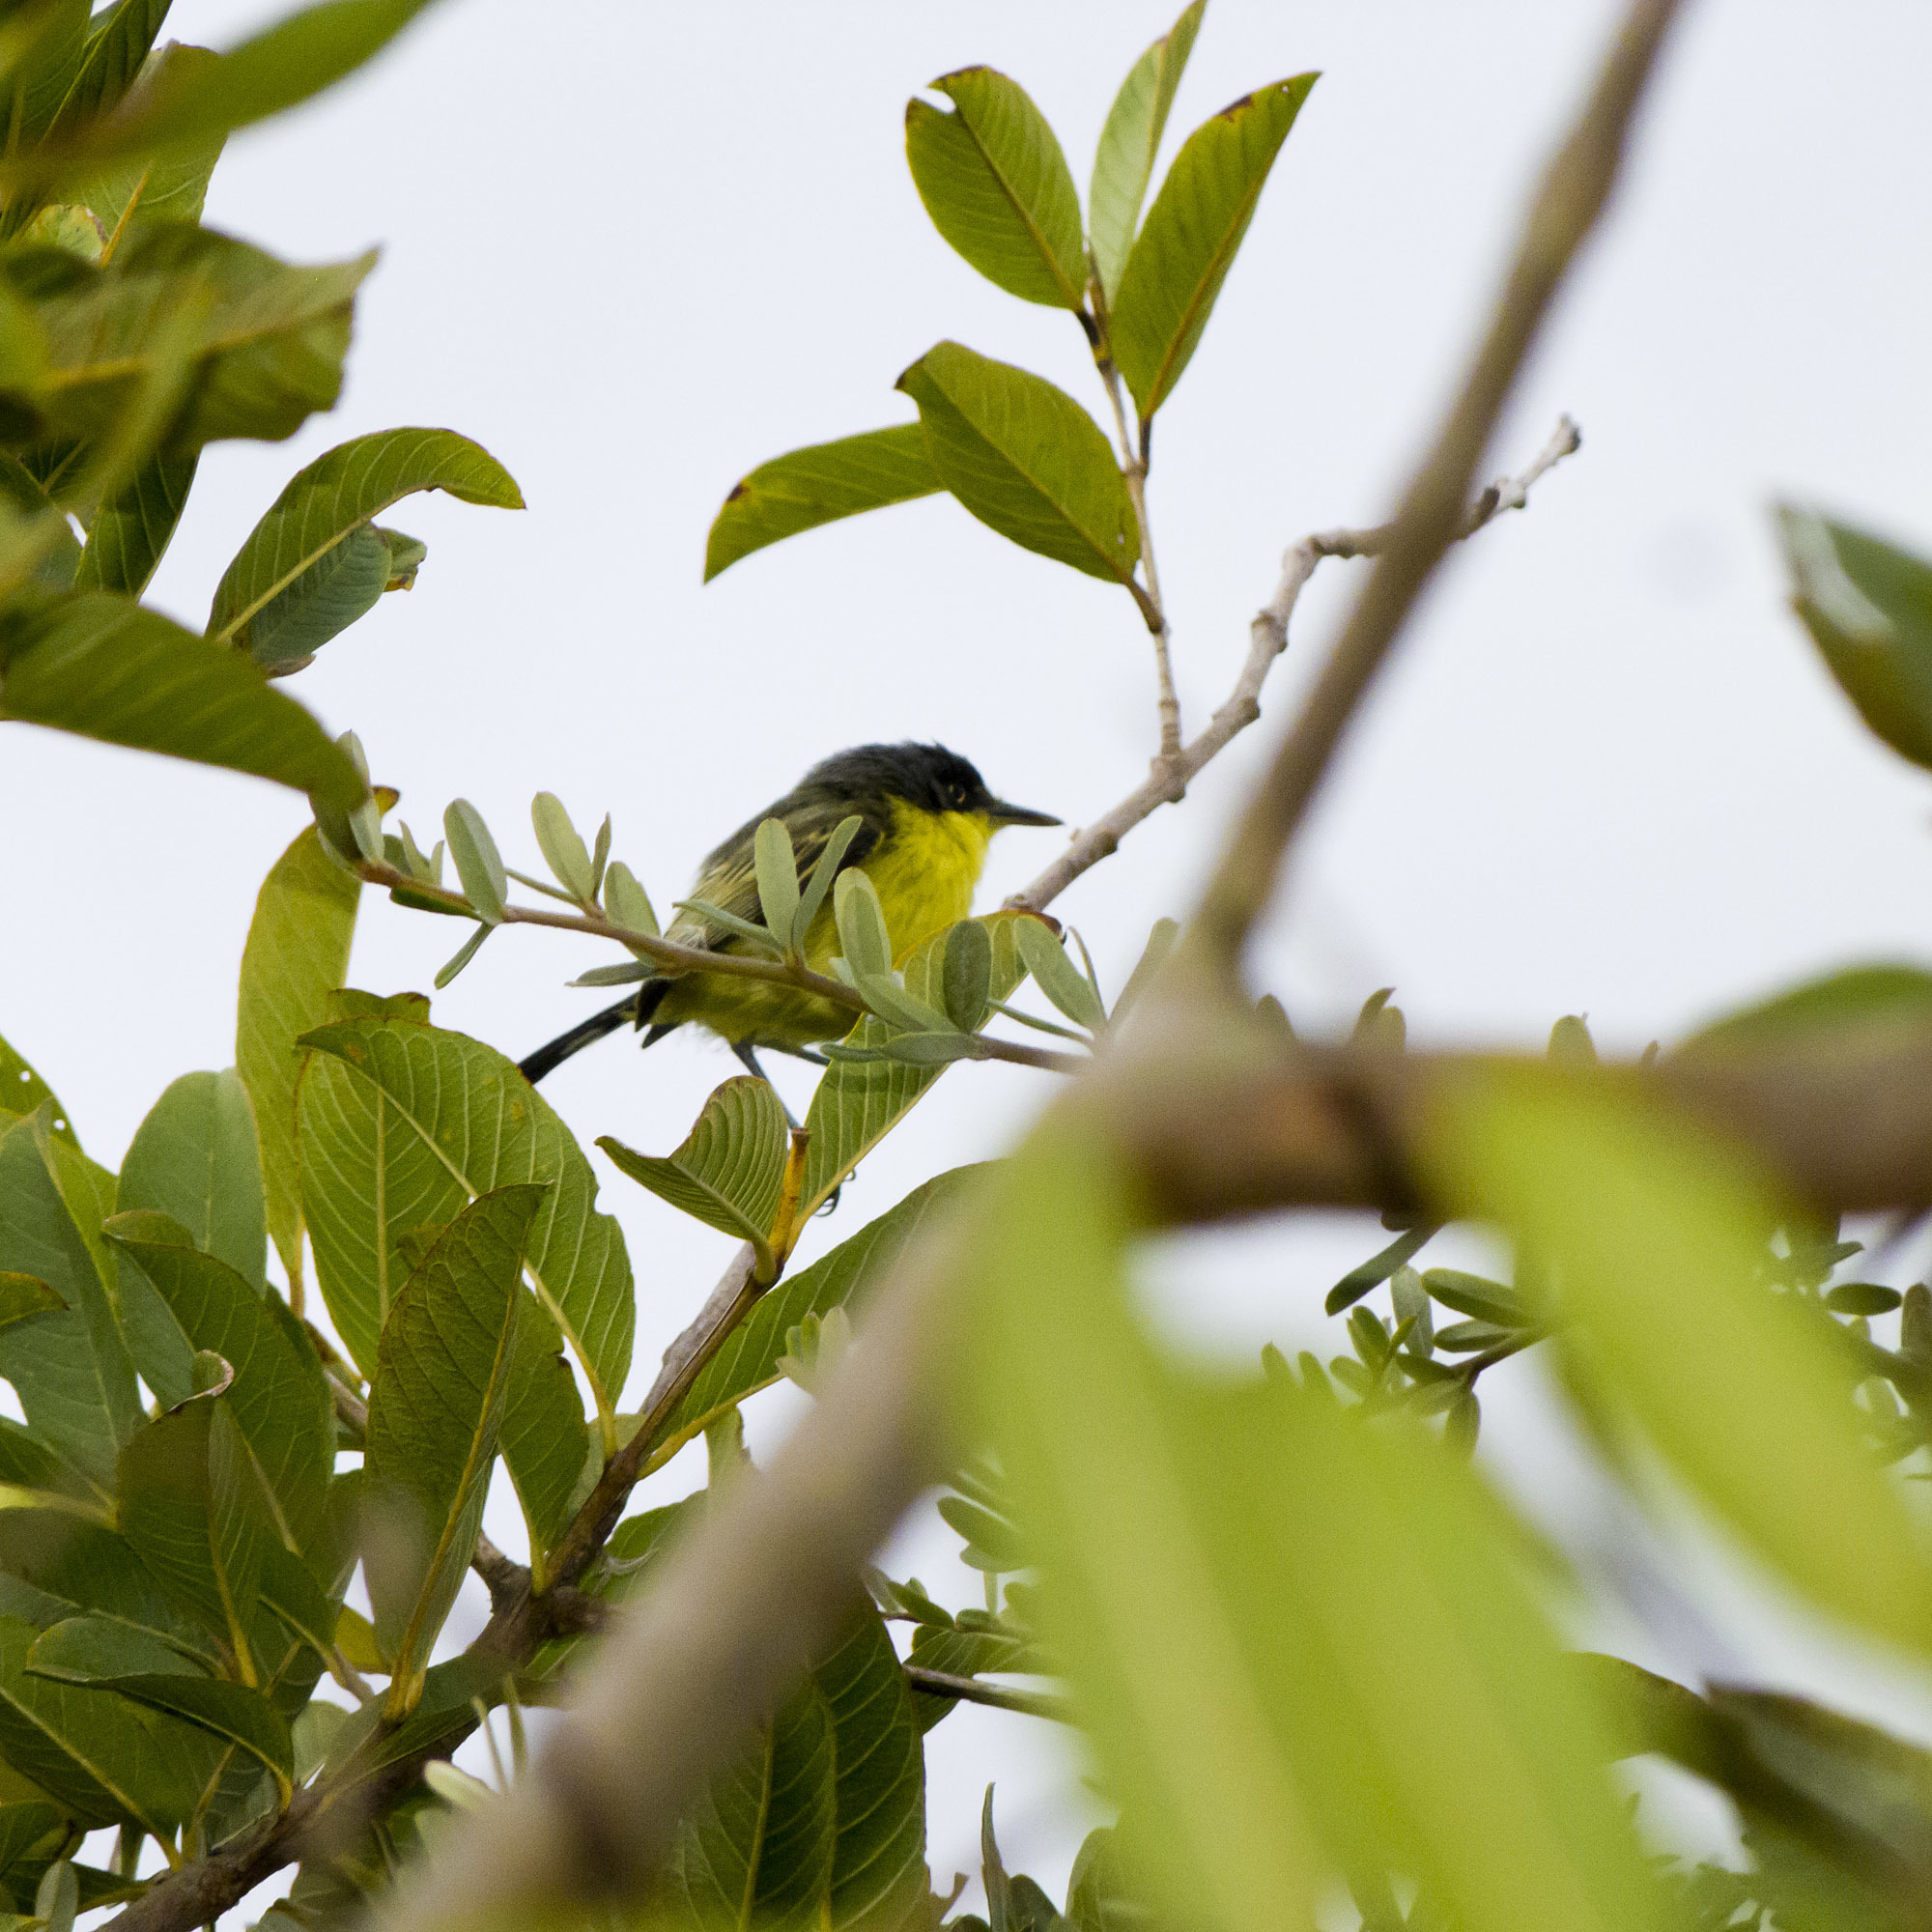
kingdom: Animalia
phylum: Chordata
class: Aves
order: Passeriformes
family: Tyrannidae
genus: Todirostrum
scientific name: Todirostrum cinereum
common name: Common tody-flycatcher
